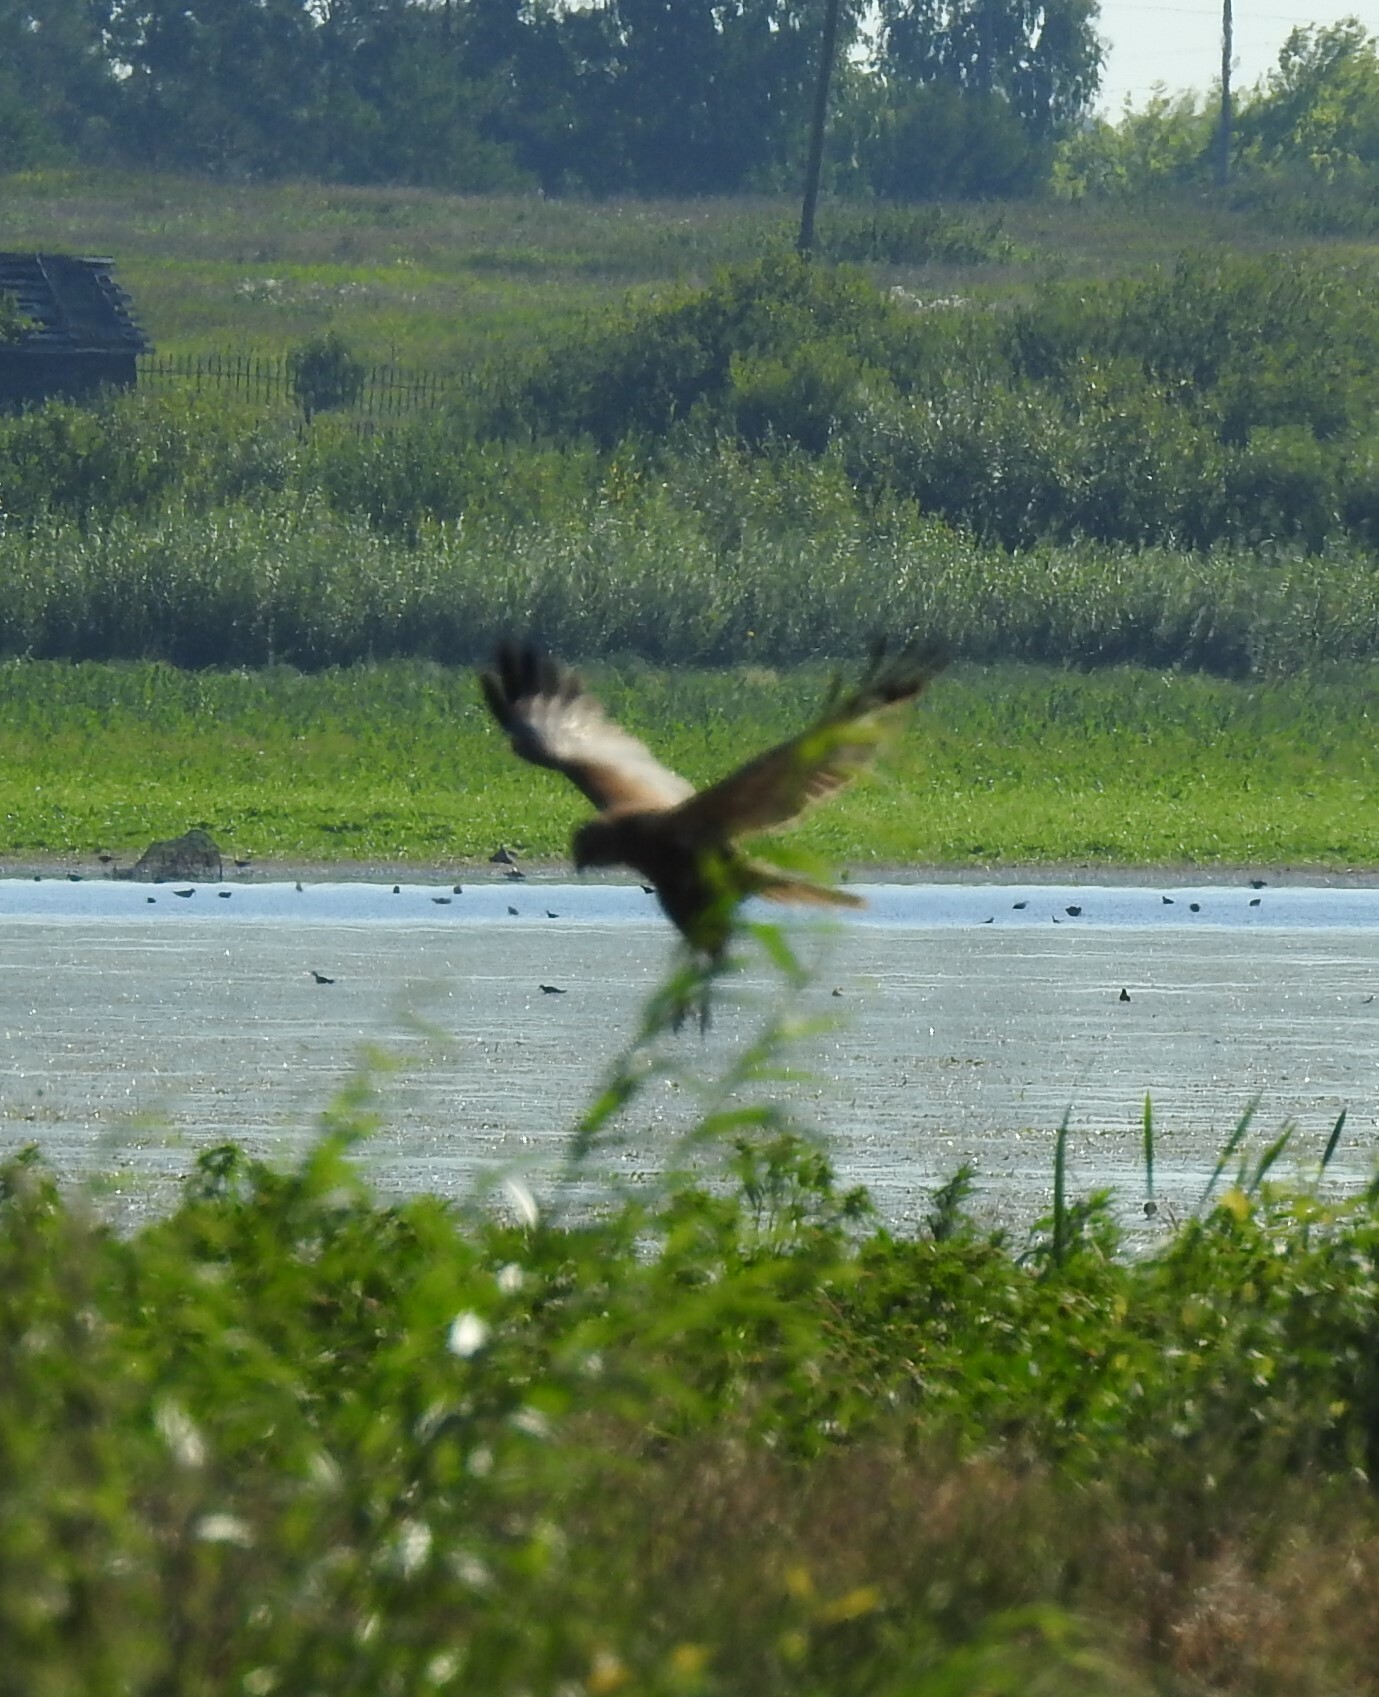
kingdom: Animalia
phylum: Chordata
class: Aves
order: Accipitriformes
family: Accipitridae
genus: Circus
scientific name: Circus aeruginosus
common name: Western marsh harrier
